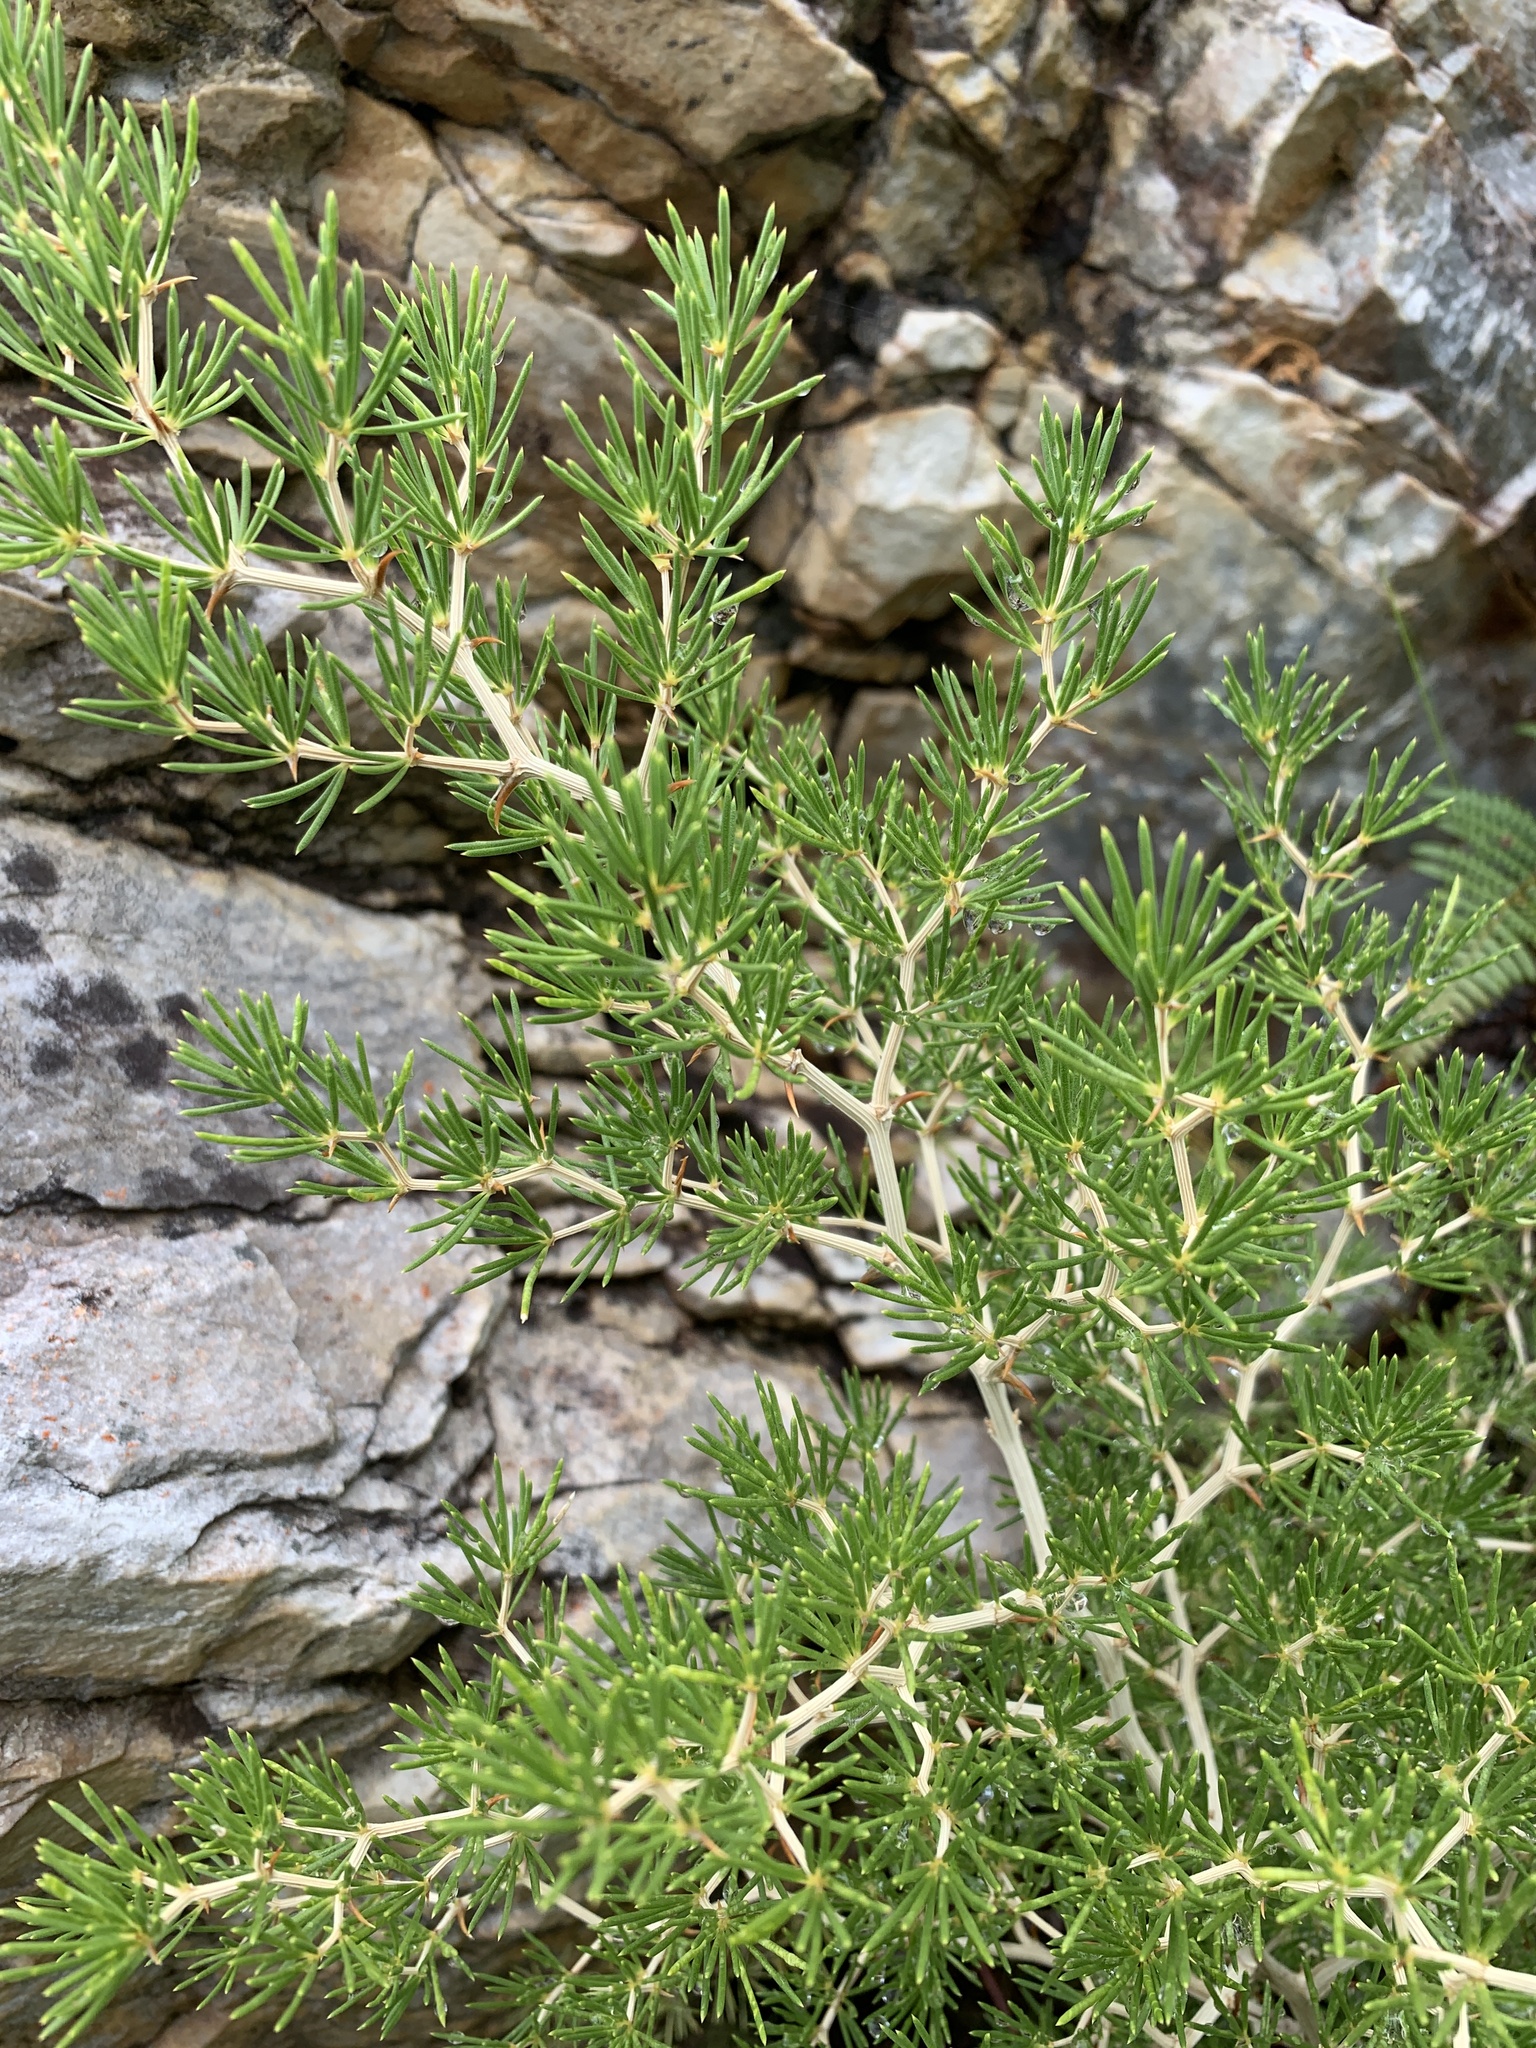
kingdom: Plantae
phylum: Tracheophyta
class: Liliopsida
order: Asparagales
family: Asparagaceae
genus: Asparagus
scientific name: Asparagus lignosus
